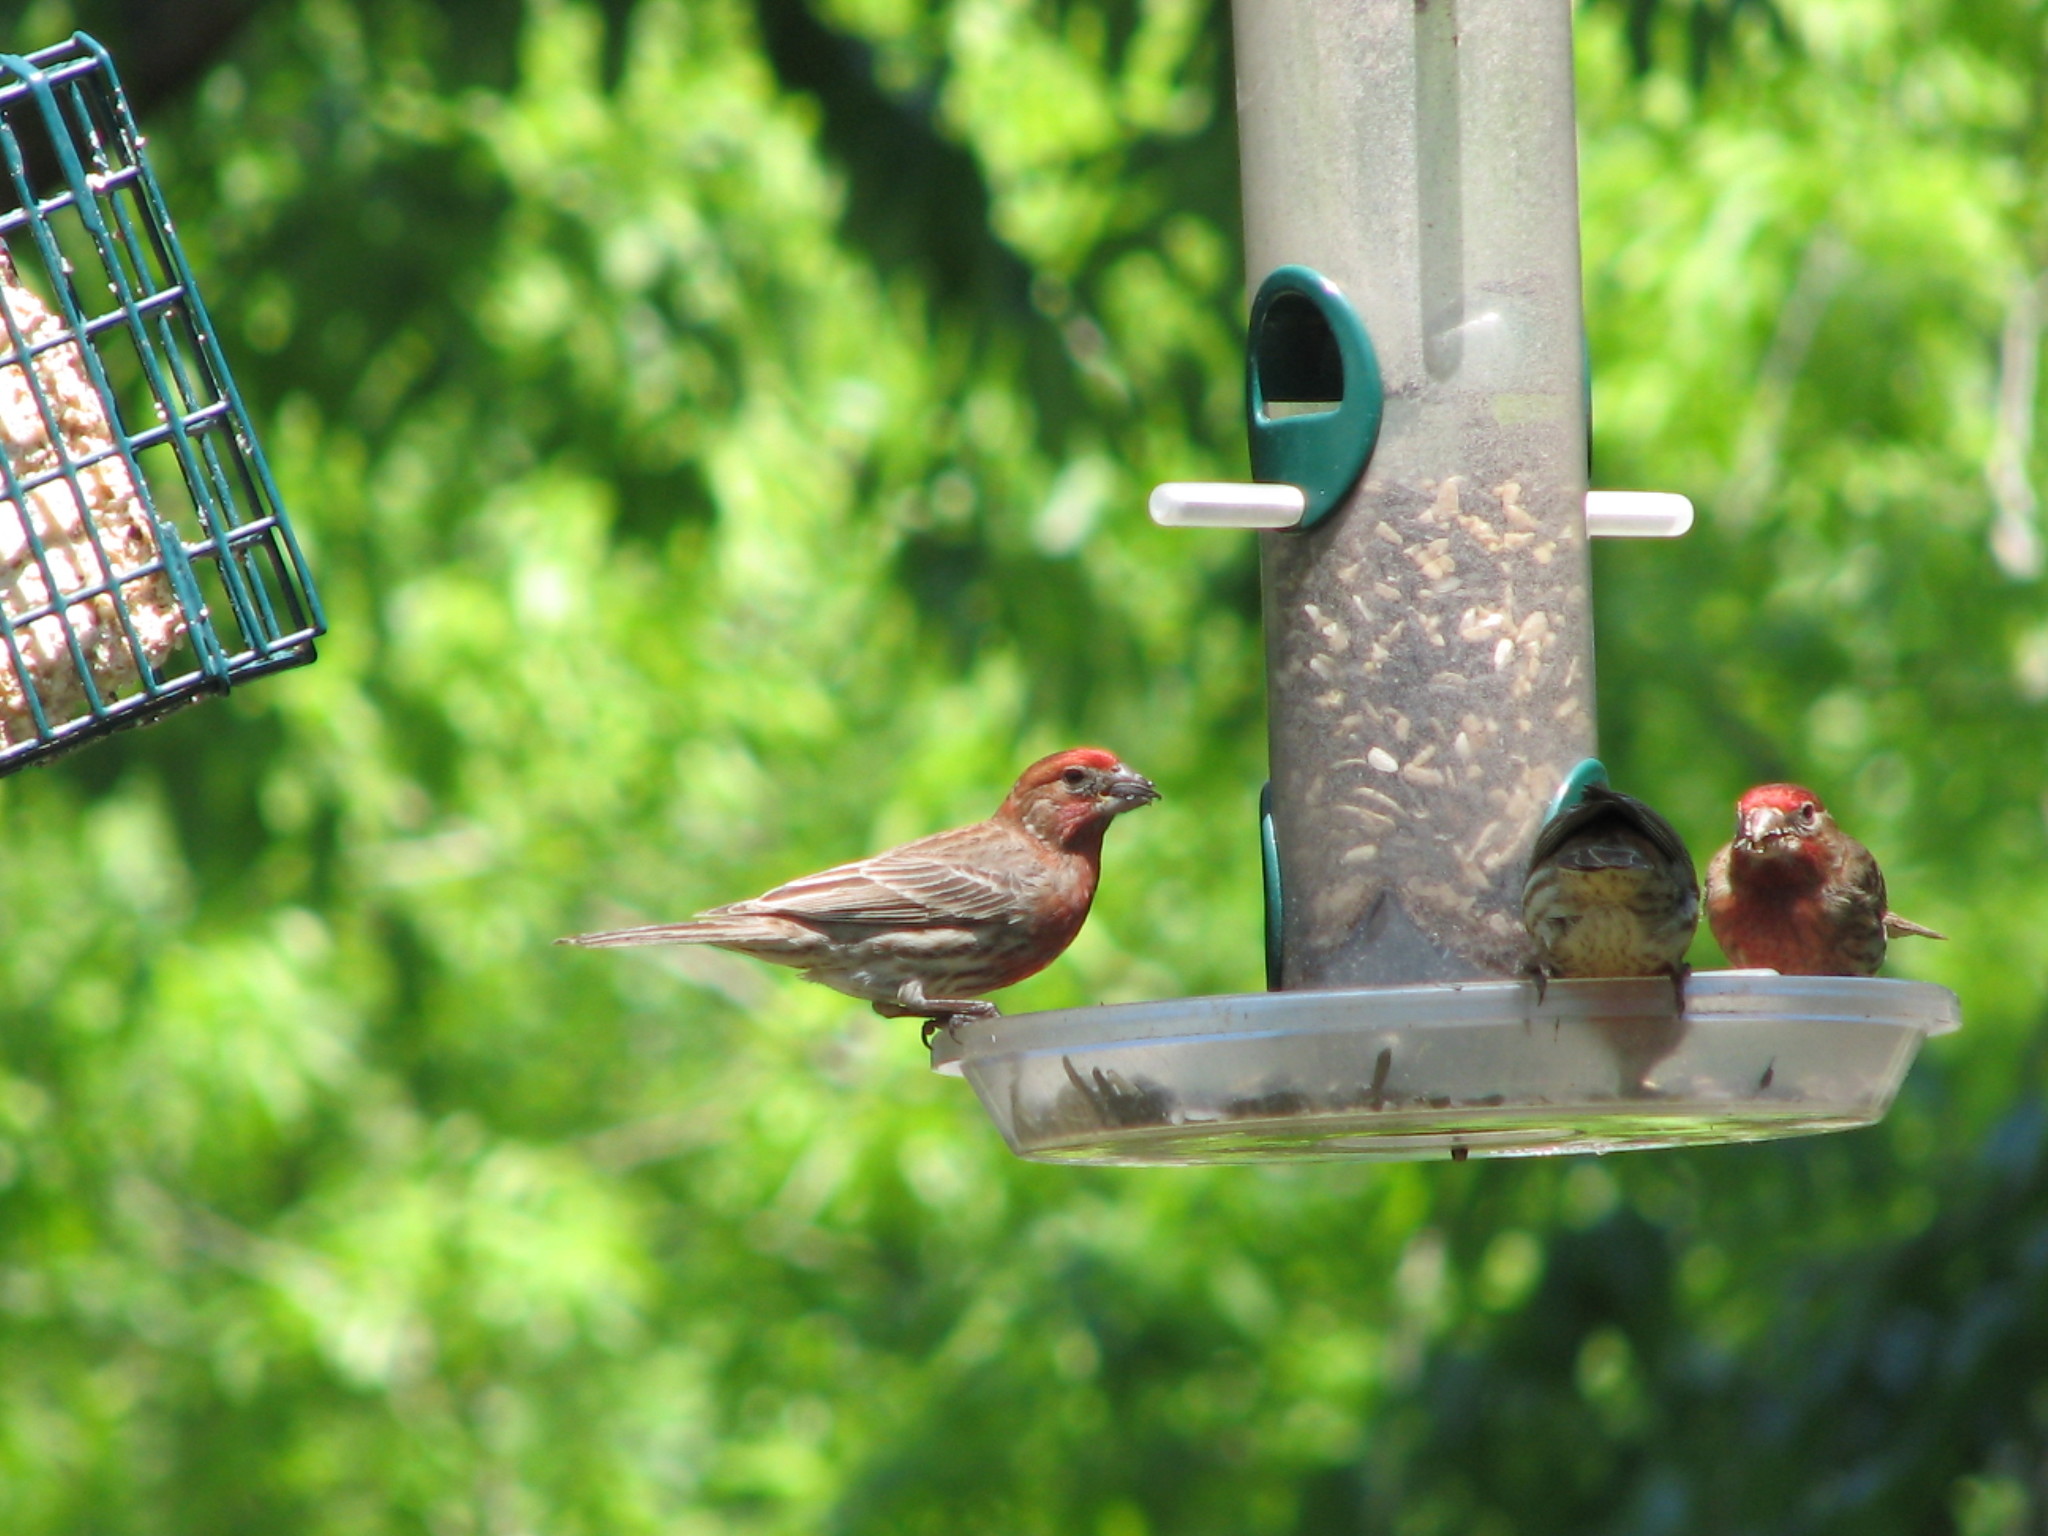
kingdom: Animalia
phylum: Chordata
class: Aves
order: Passeriformes
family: Fringillidae
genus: Haemorhous
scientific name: Haemorhous mexicanus
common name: House finch
